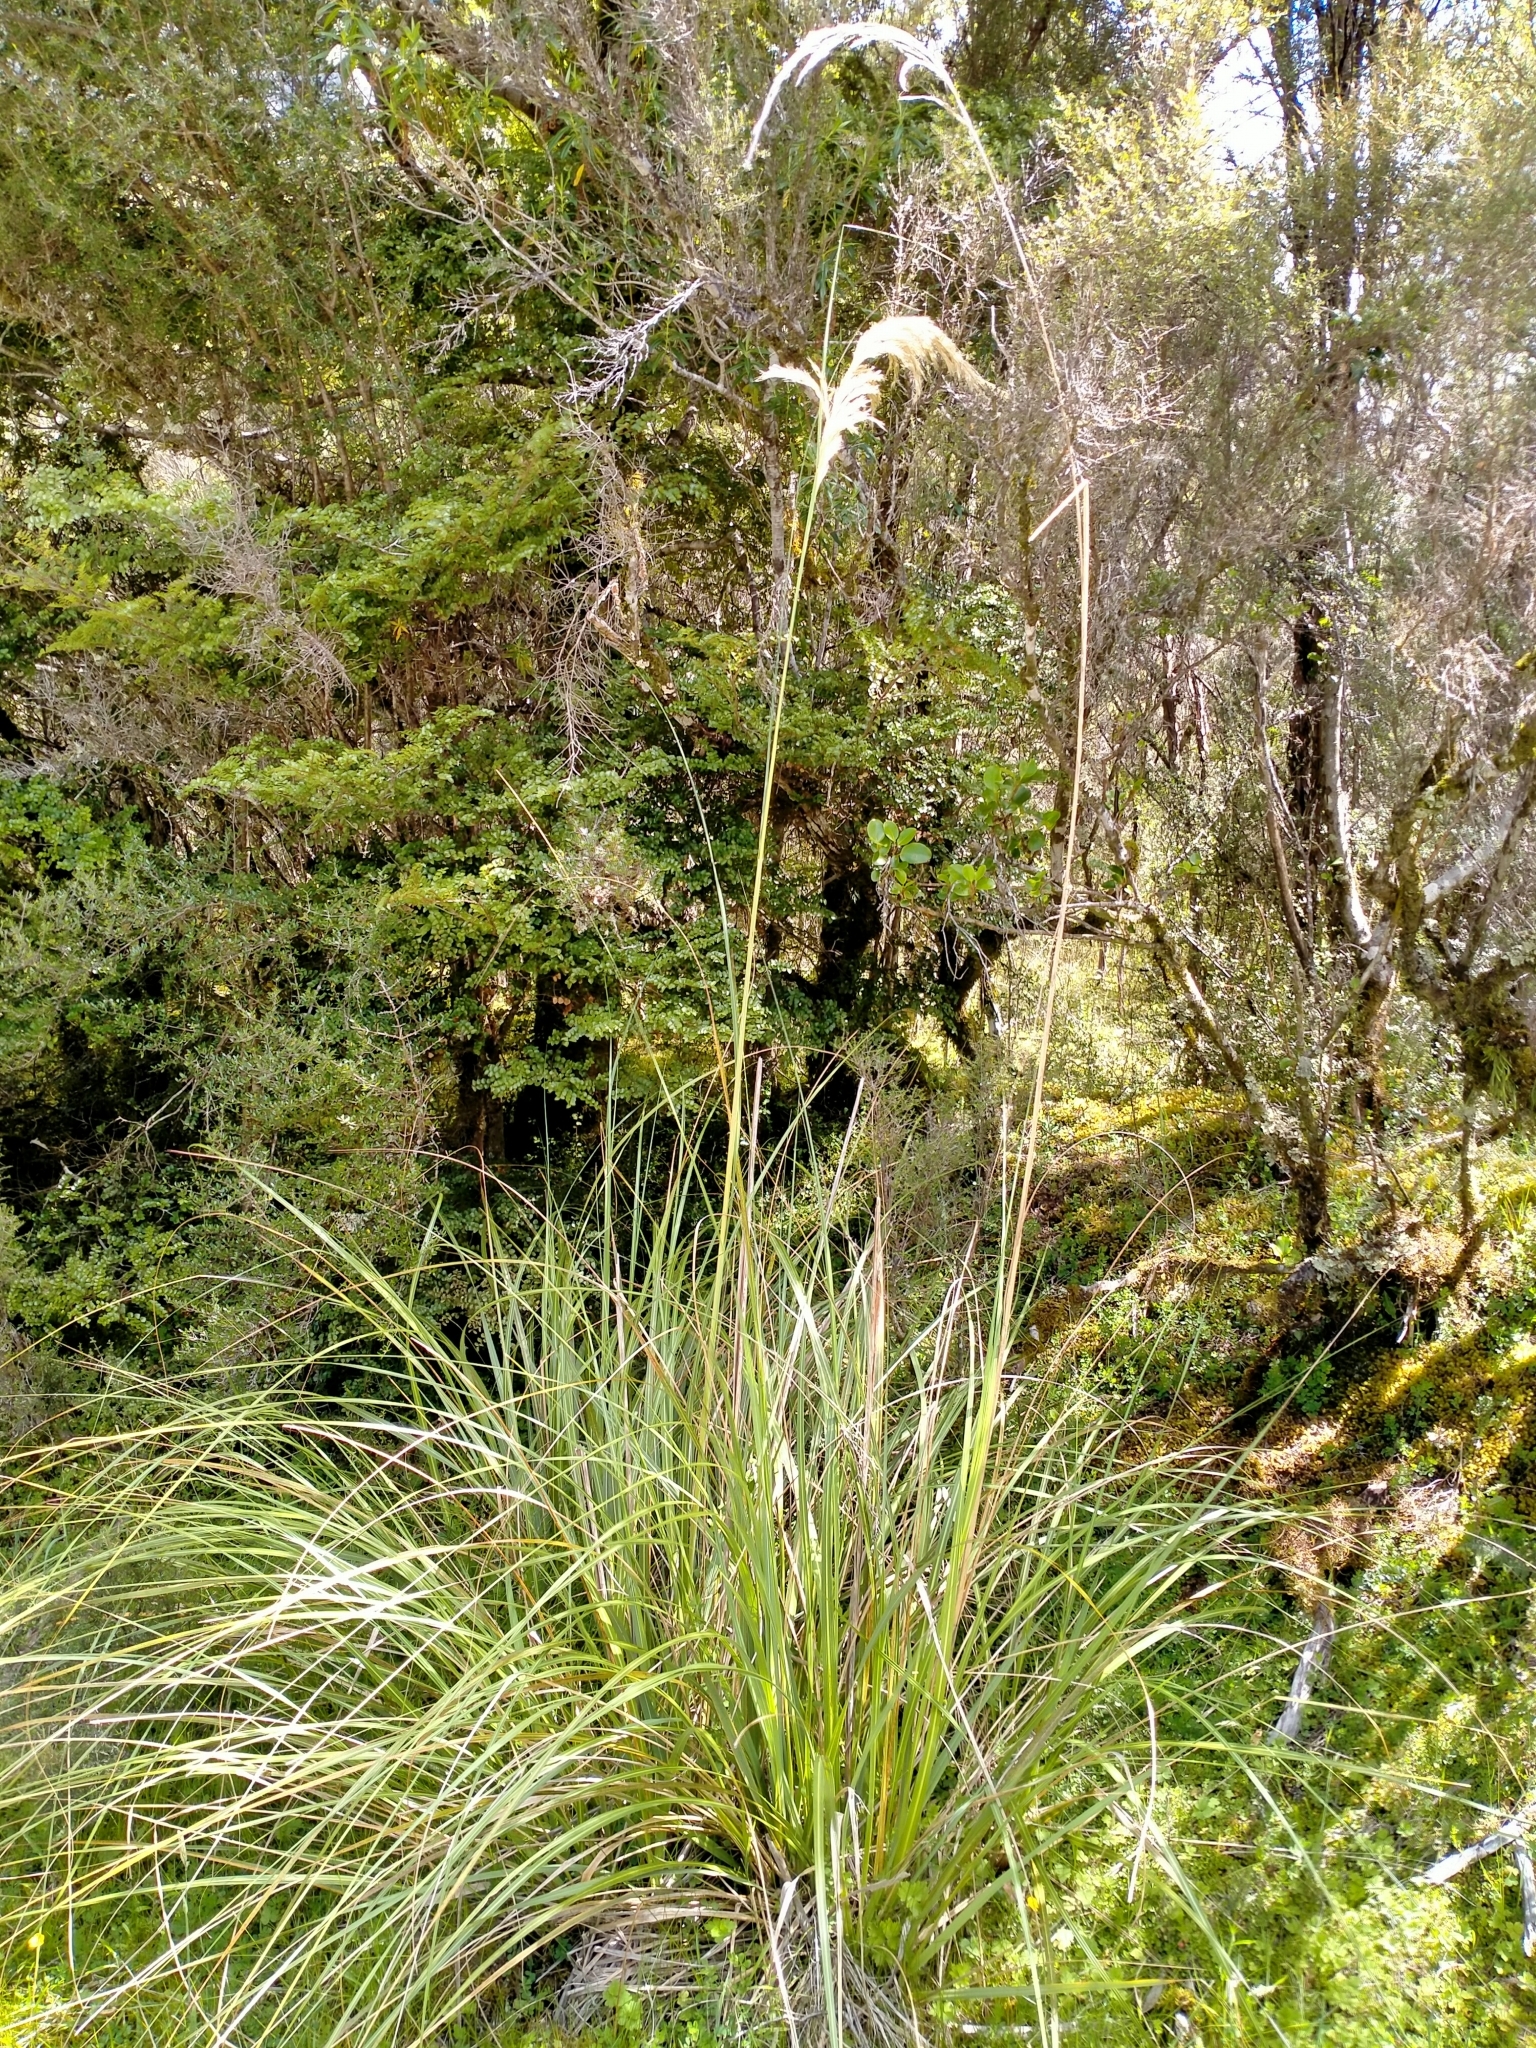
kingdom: Plantae
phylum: Tracheophyta
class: Liliopsida
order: Poales
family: Poaceae
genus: Austroderia
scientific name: Austroderia richardii
